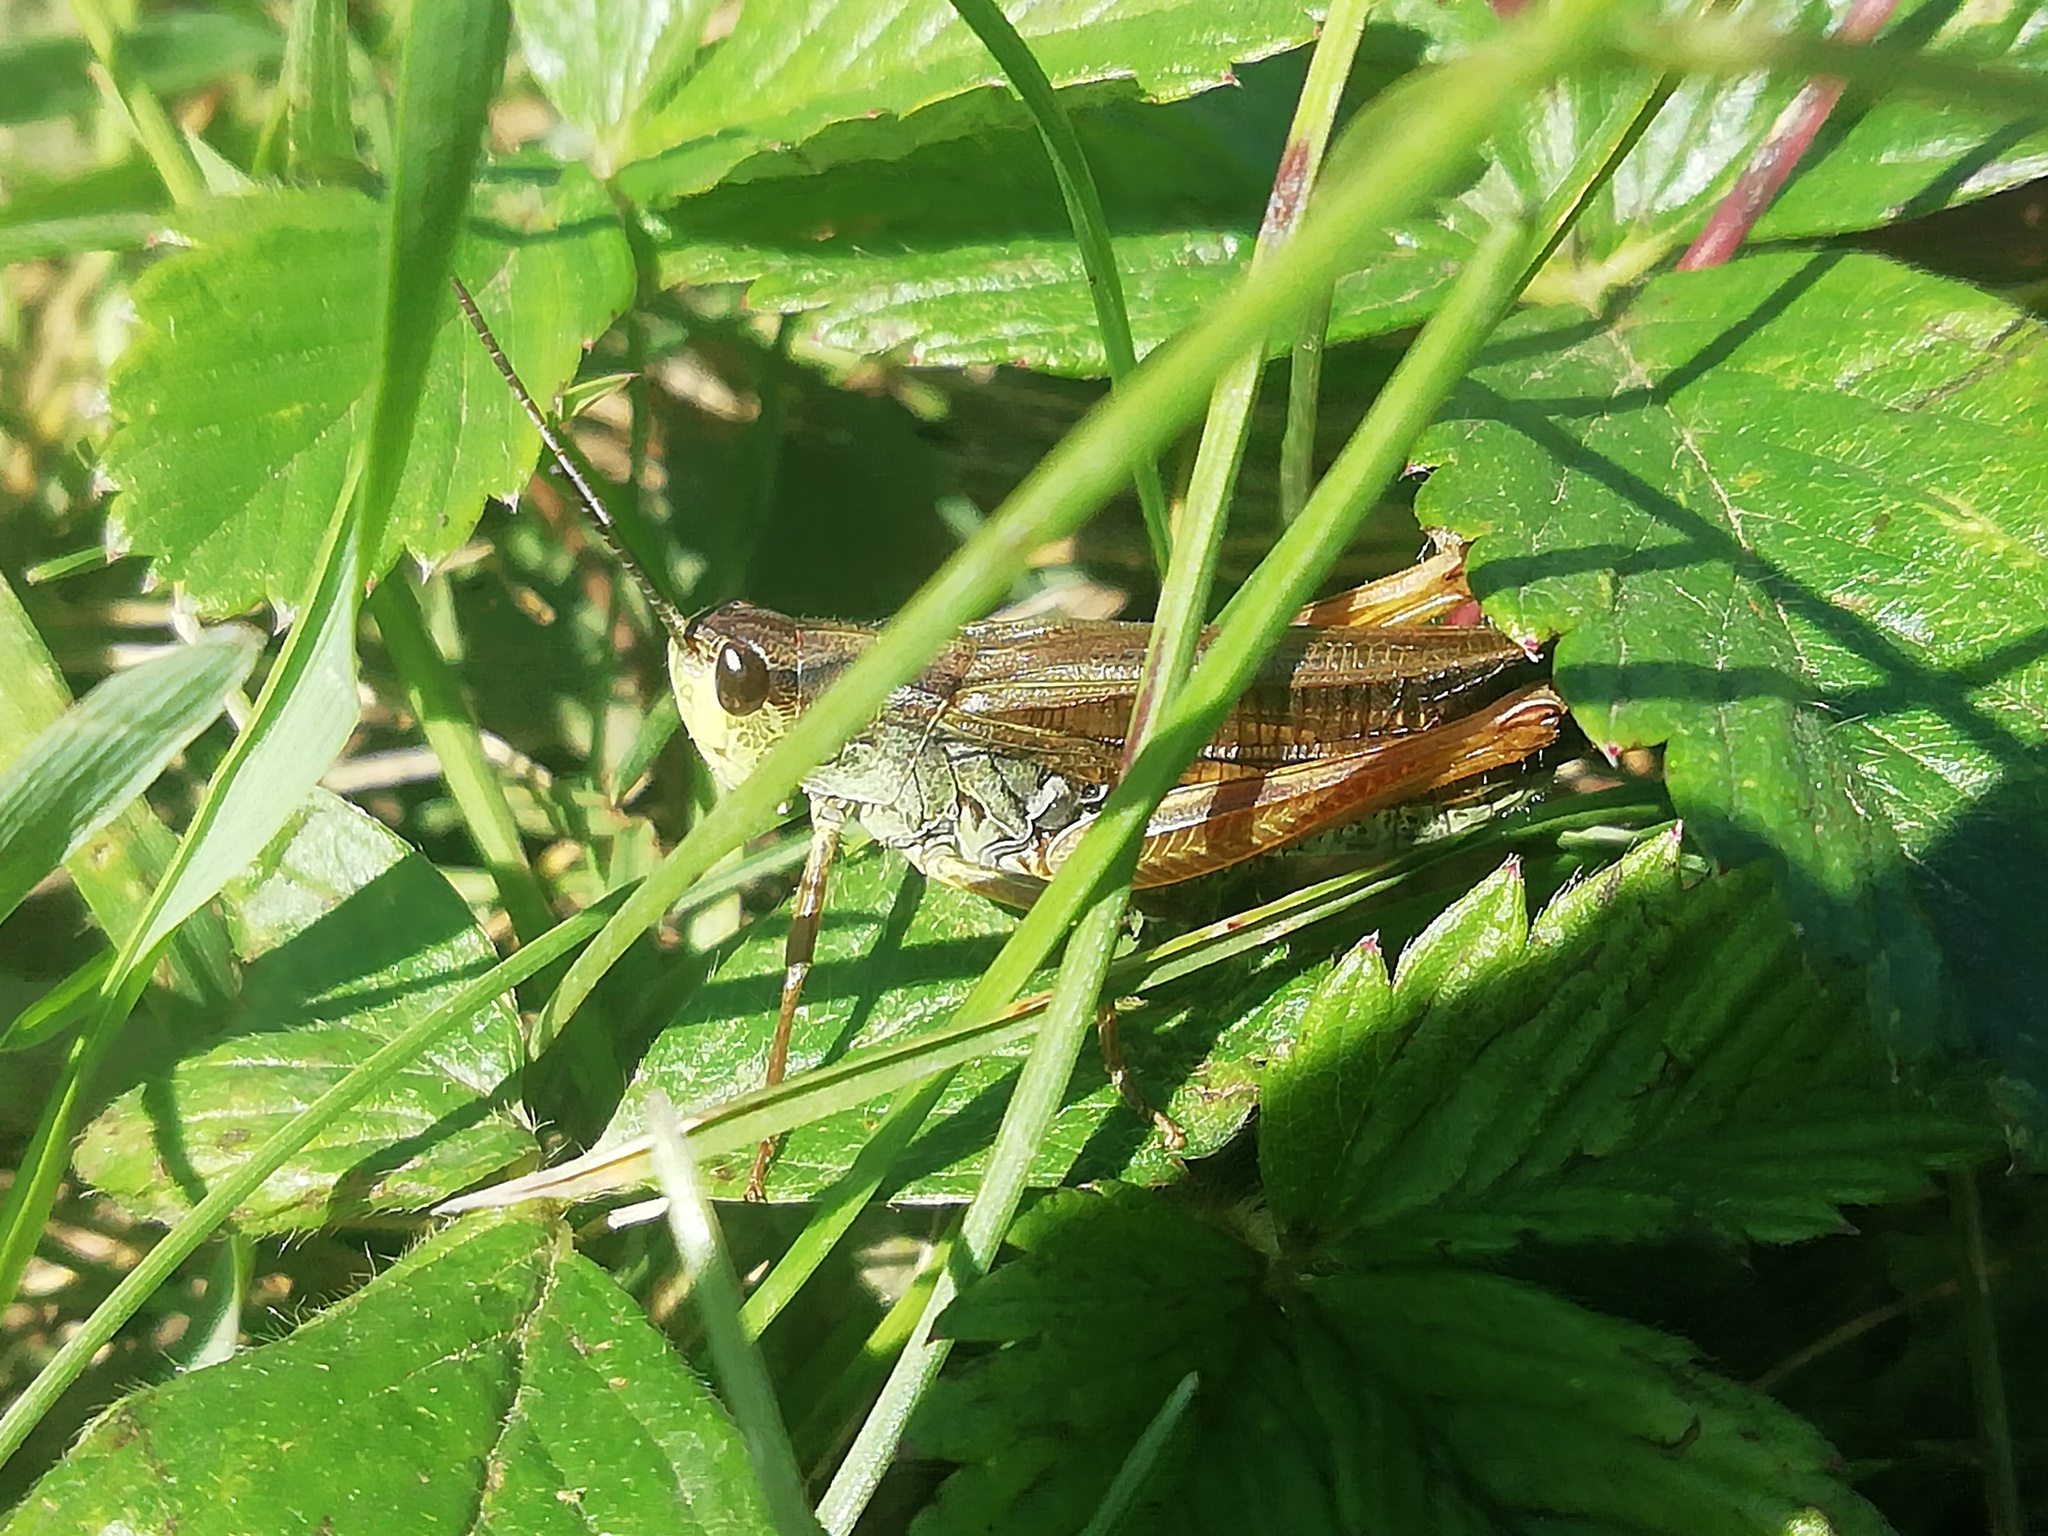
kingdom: Animalia
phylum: Arthropoda
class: Insecta
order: Orthoptera
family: Acrididae
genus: Stauroderus
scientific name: Stauroderus scalaris
